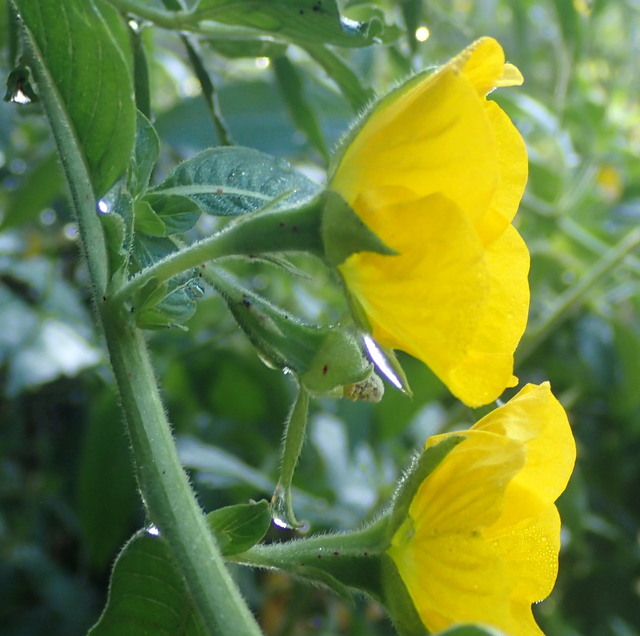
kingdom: Plantae
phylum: Tracheophyta
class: Magnoliopsida
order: Myrtales
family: Onagraceae
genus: Ludwigia
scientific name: Ludwigia peruviana
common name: Peruvian primrose-willow
